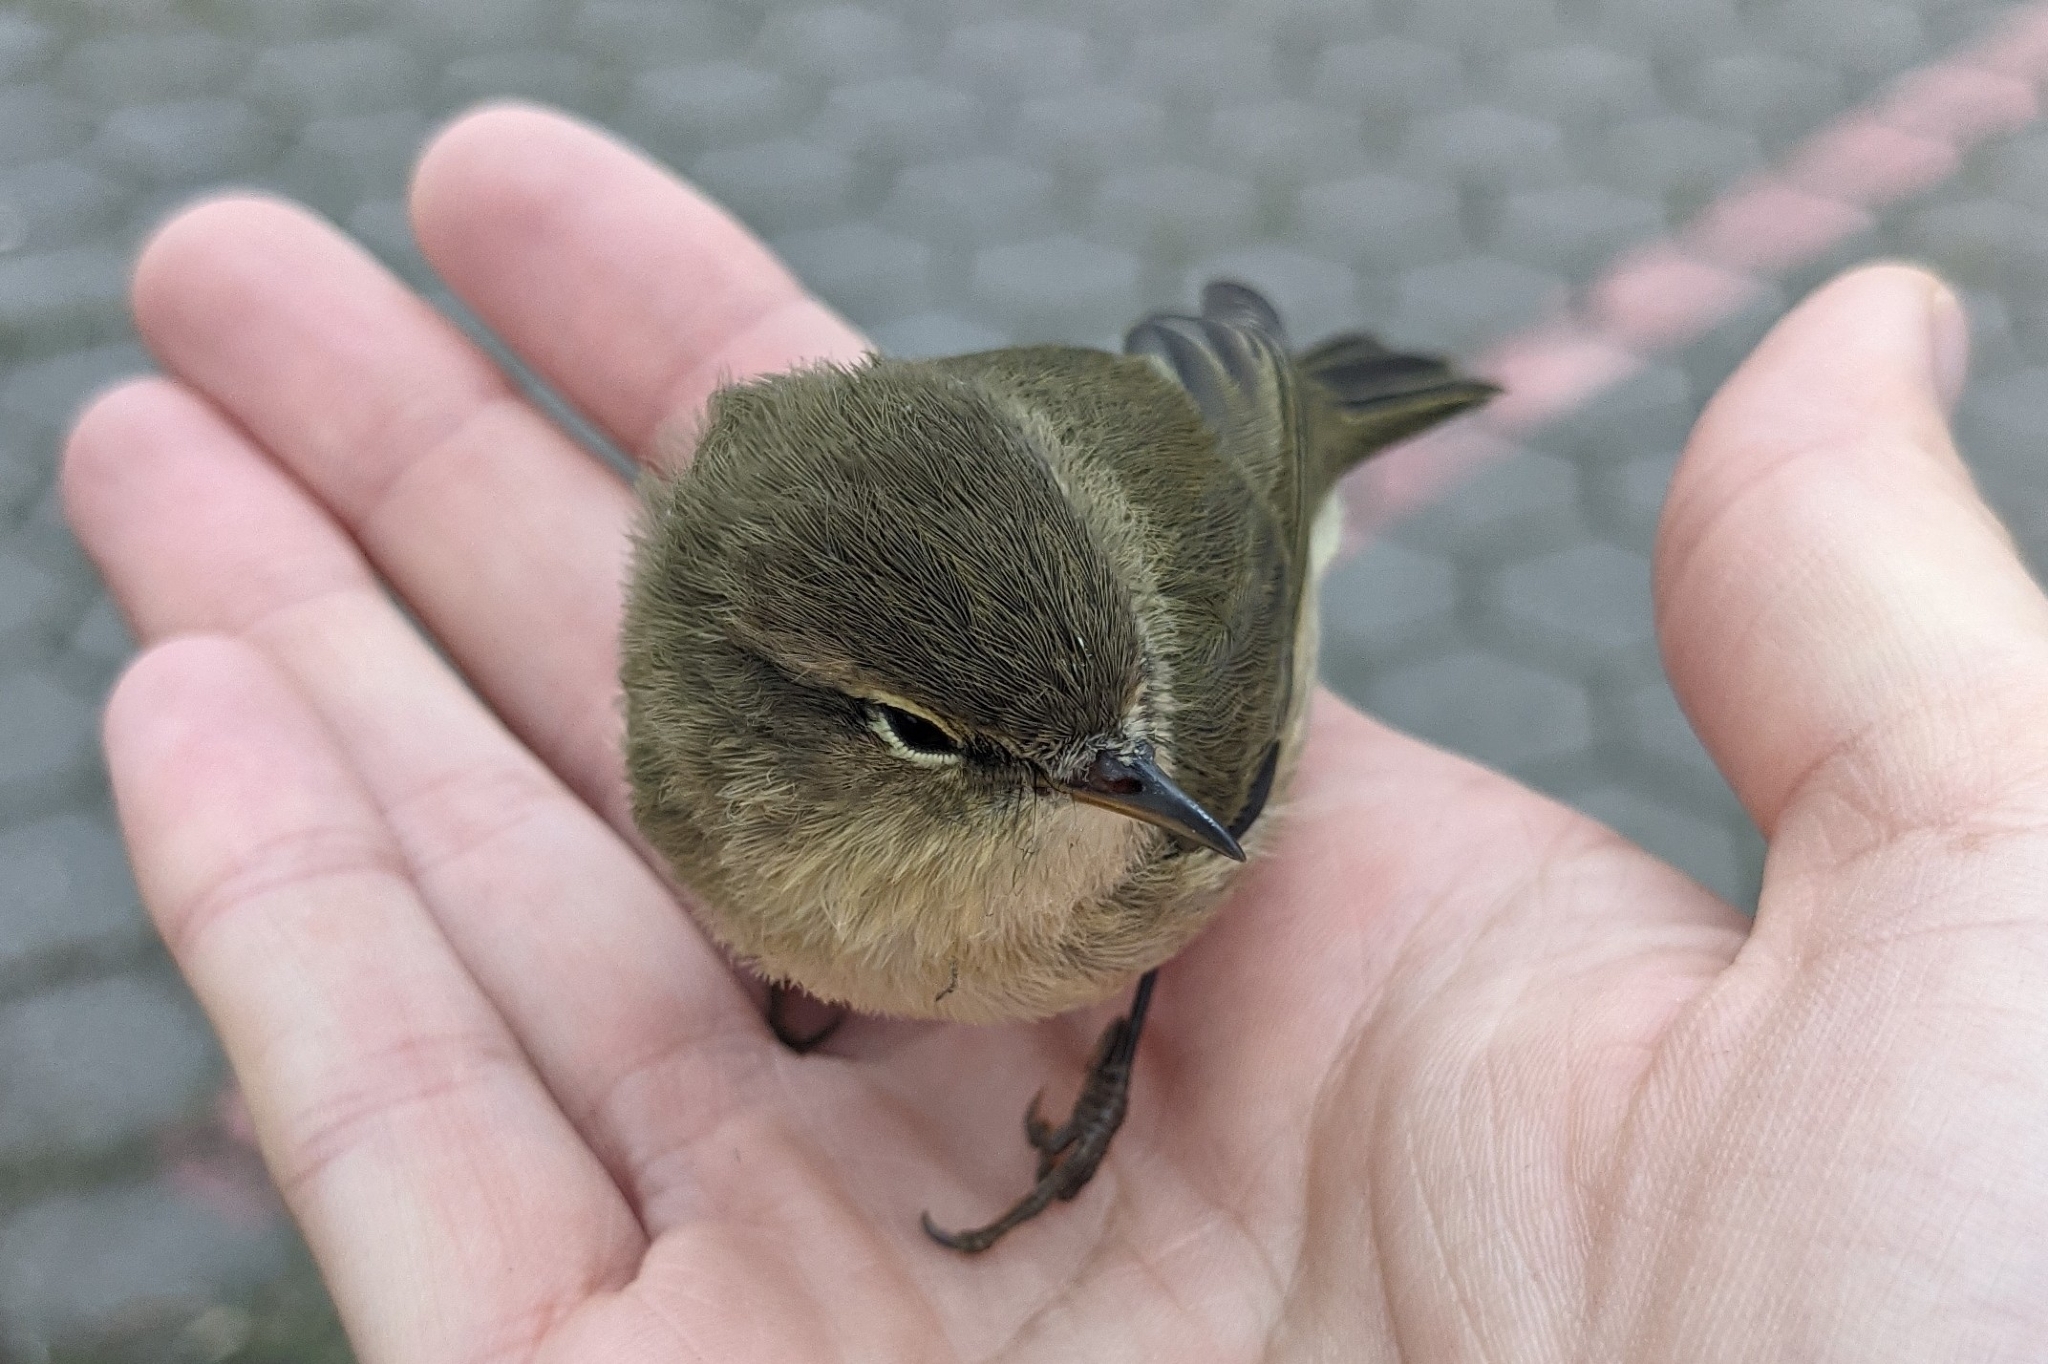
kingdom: Animalia
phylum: Chordata
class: Aves
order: Passeriformes
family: Phylloscopidae
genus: Phylloscopus
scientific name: Phylloscopus collybita
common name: Common chiffchaff
